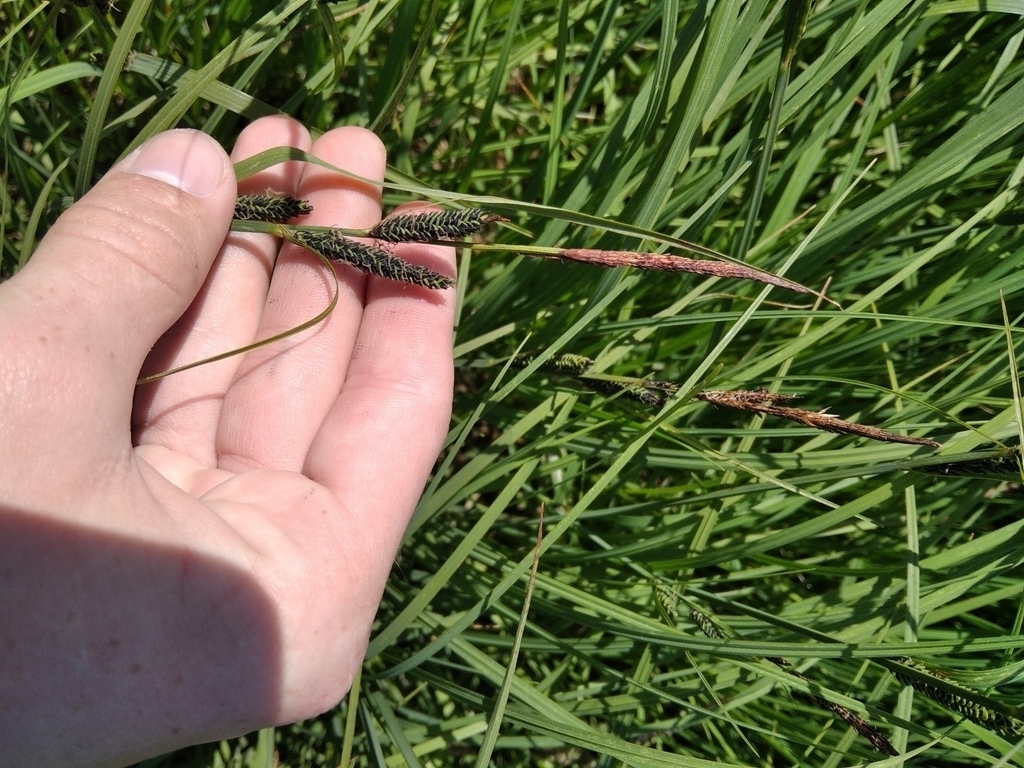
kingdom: Plantae
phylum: Tracheophyta
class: Liliopsida
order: Poales
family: Cyperaceae
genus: Carex
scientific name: Carex acuta
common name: Slender tufted-sedge
